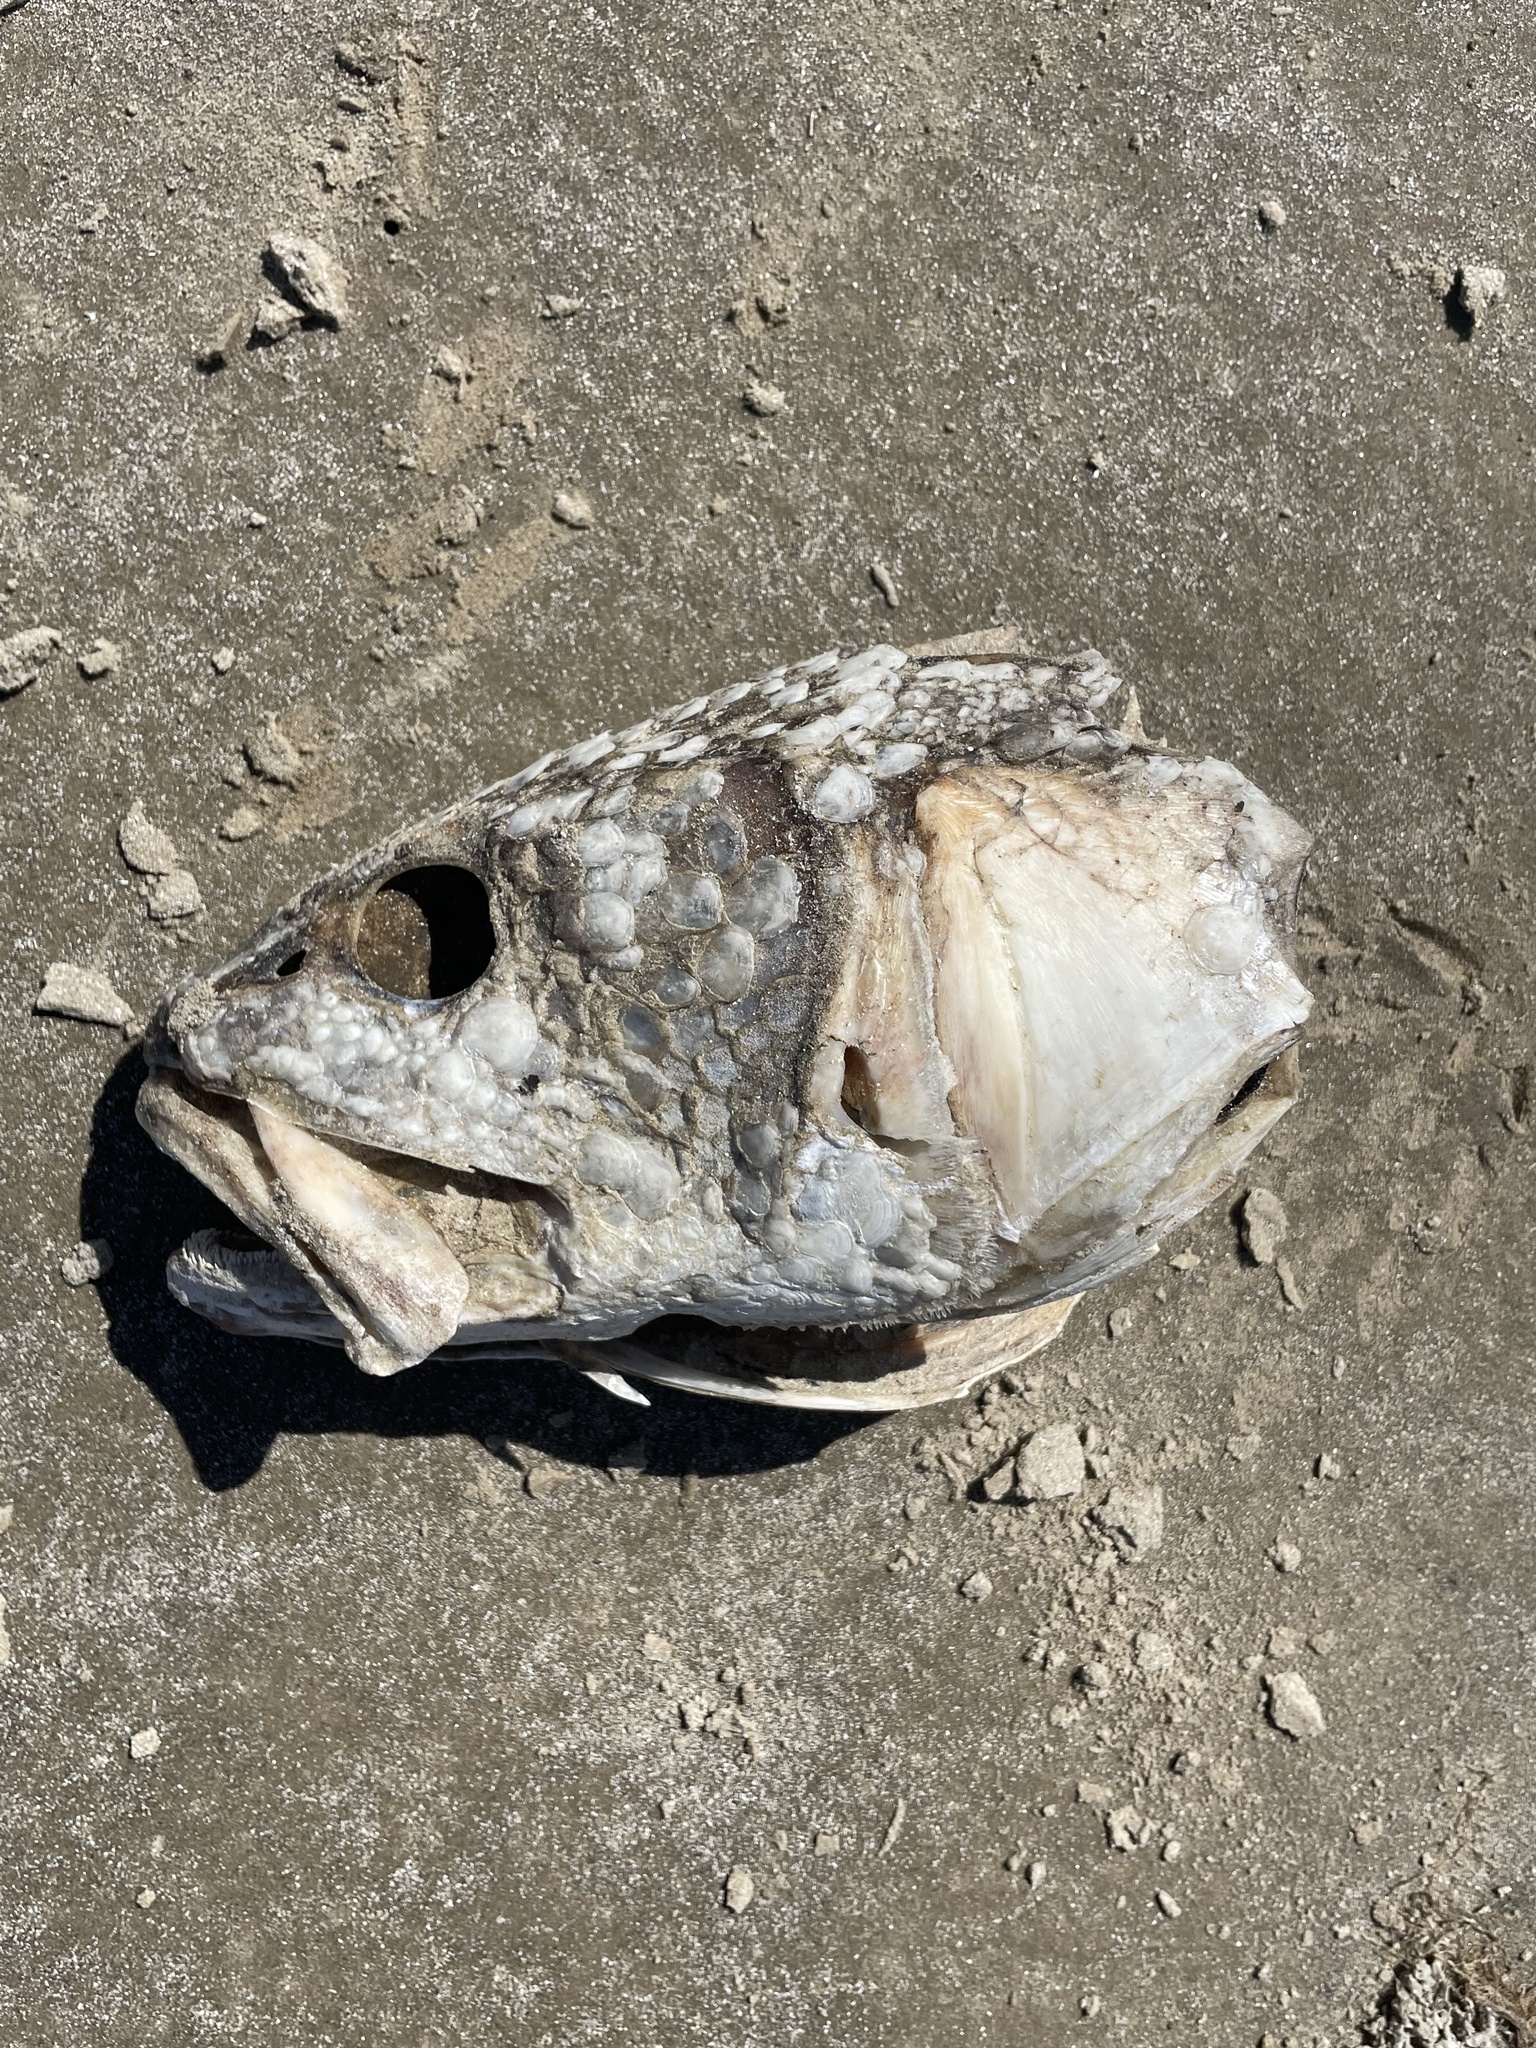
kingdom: Animalia
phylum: Chordata
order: Perciformes
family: Sciaenidae
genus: Sciaenops
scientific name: Sciaenops ocellatus
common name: Red drum
